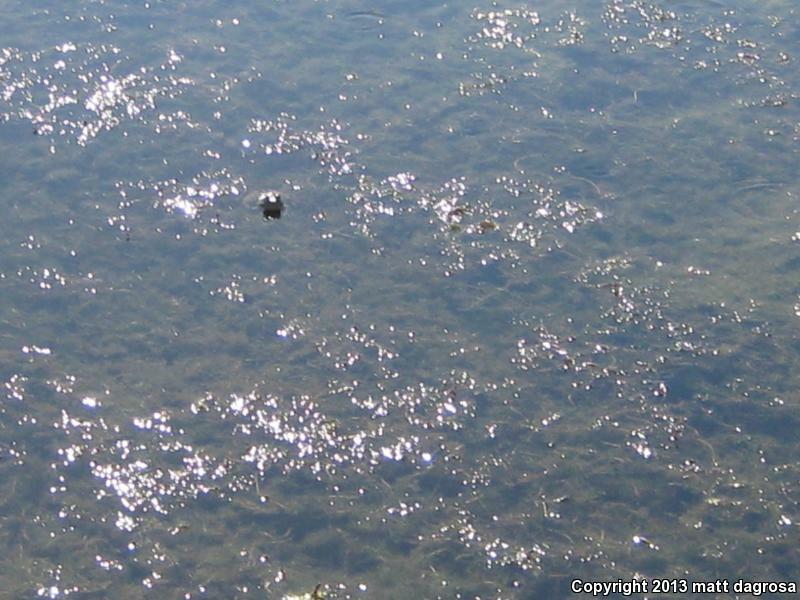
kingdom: Animalia
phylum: Chordata
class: Amphibia
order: Anura
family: Ranidae
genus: Lithobates
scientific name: Lithobates catesbeianus
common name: American bullfrog
